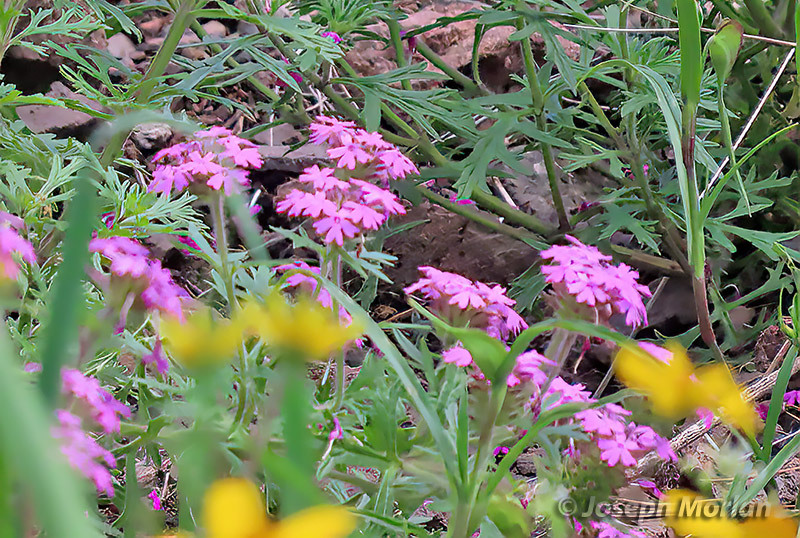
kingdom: Plantae
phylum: Tracheophyta
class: Magnoliopsida
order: Lamiales
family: Verbenaceae
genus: Verbena
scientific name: Verbena chiricahensis
